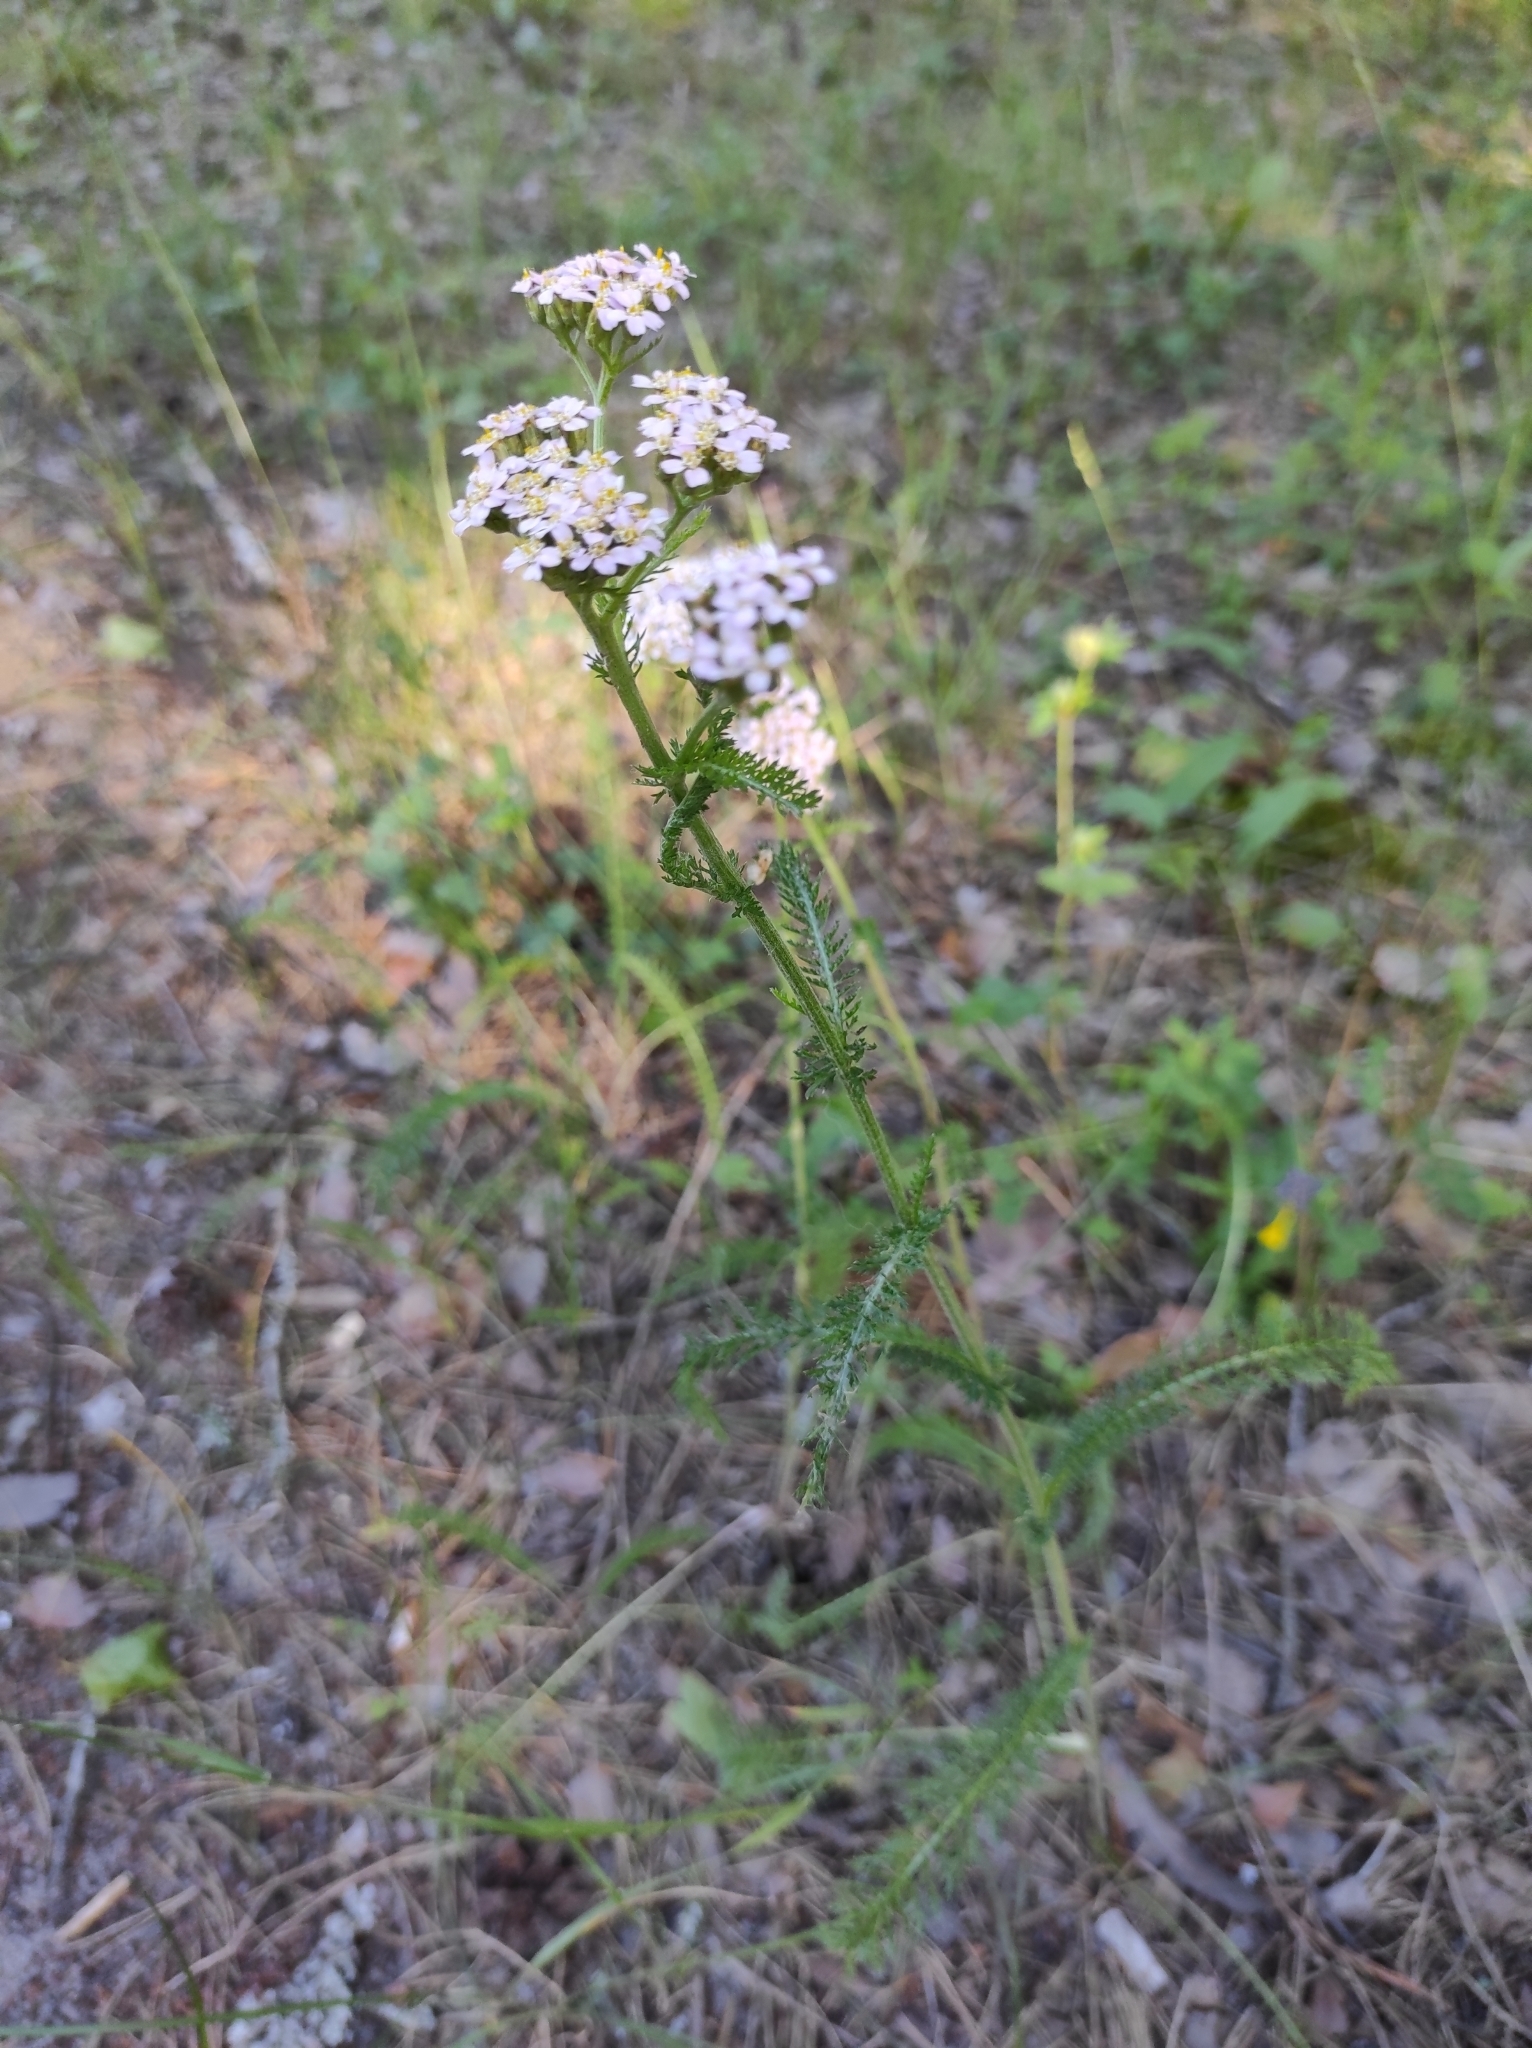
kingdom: Plantae
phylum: Tracheophyta
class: Magnoliopsida
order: Asterales
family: Asteraceae
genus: Achillea
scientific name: Achillea millefolium
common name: Yarrow
